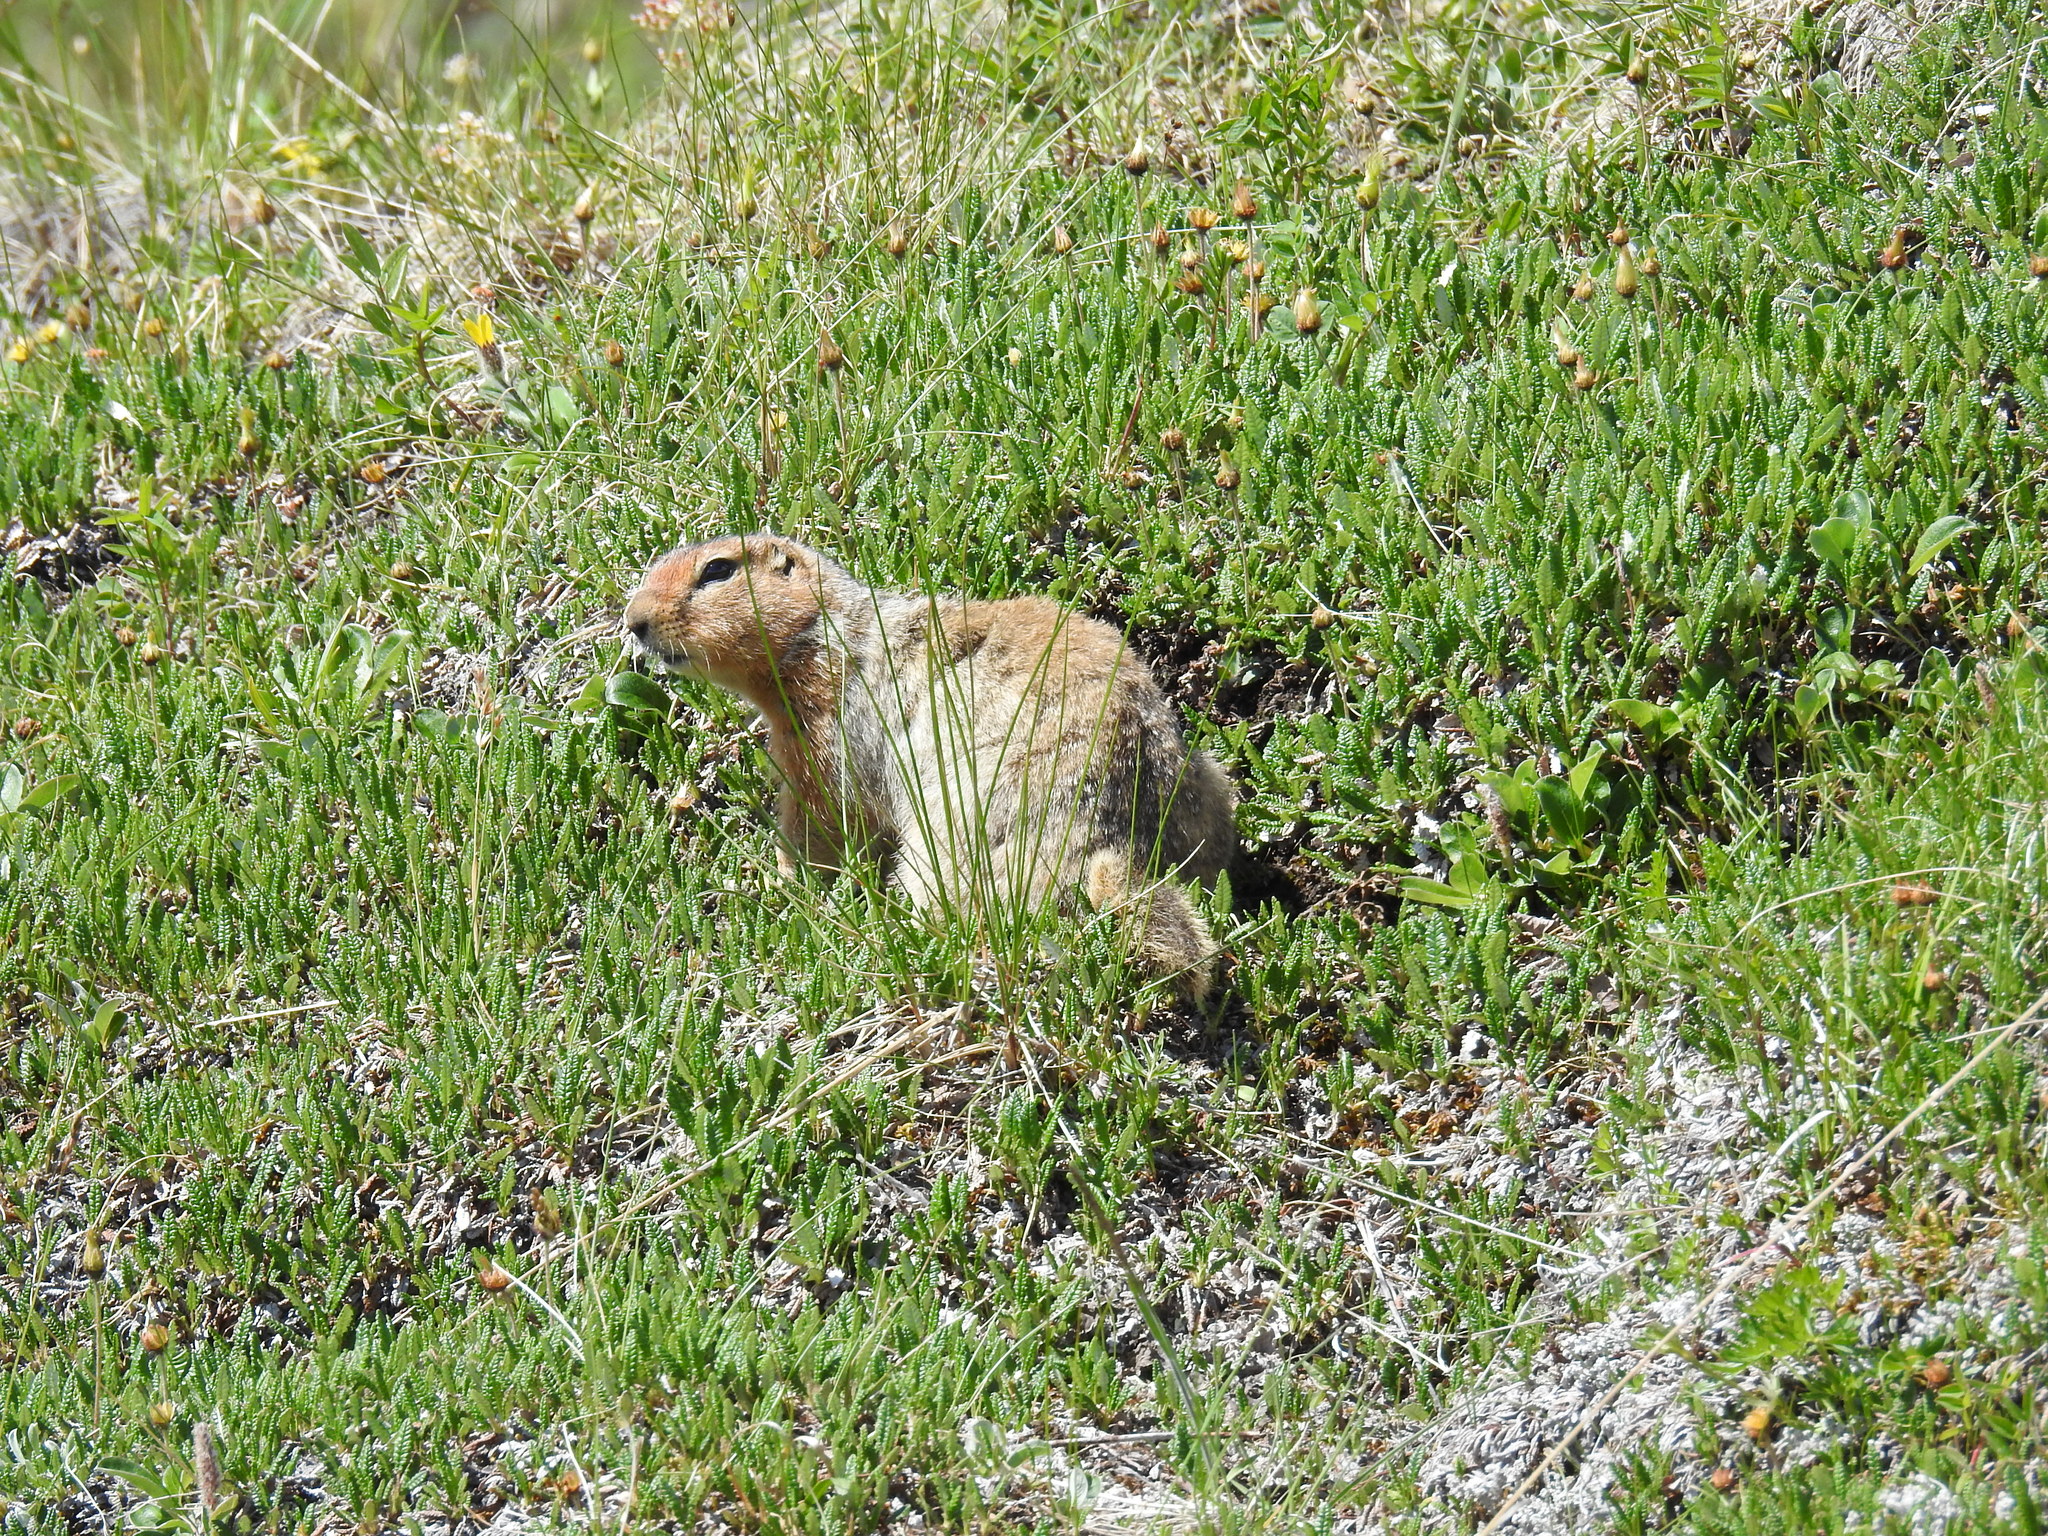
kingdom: Animalia
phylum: Chordata
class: Mammalia
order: Rodentia
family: Sciuridae
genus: Urocitellus
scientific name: Urocitellus parryii
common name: Arctic ground squirrel
